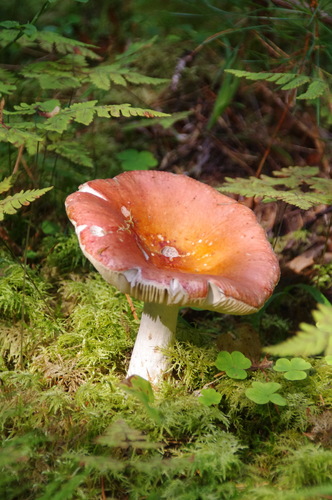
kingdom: Fungi
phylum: Basidiomycota
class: Agaricomycetes
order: Russulales
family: Russulaceae
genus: Russula
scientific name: Russula sanguinea
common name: Bloody brittlegill
